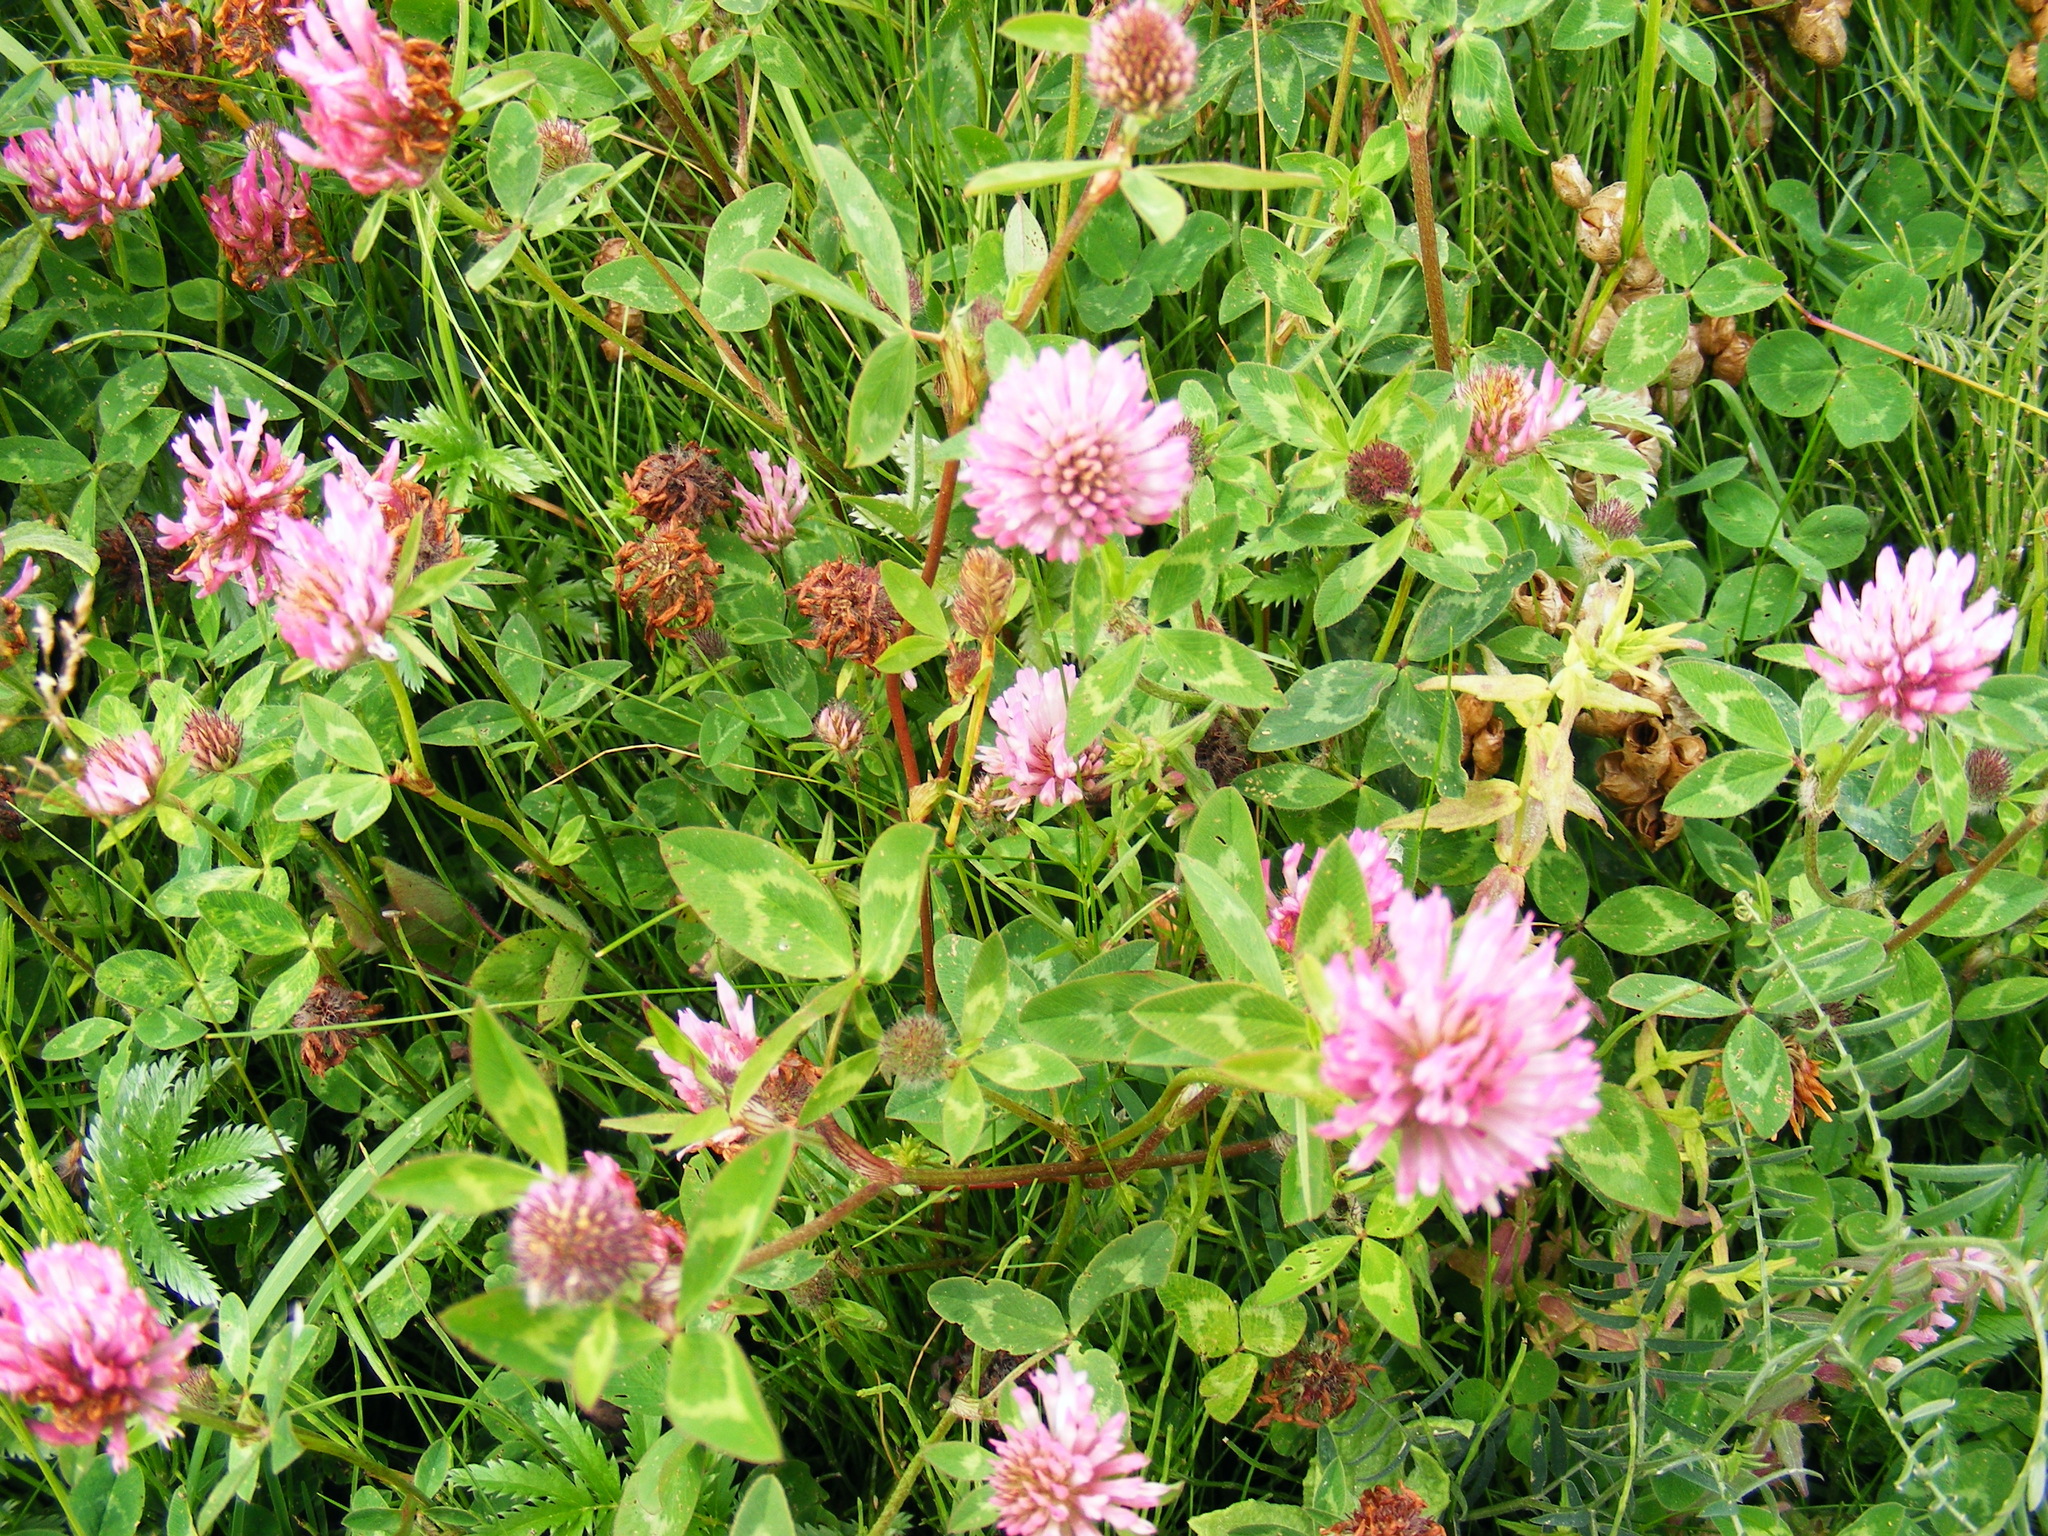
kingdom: Plantae
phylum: Tracheophyta
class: Magnoliopsida
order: Fabales
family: Fabaceae
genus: Trifolium
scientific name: Trifolium pratense
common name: Red clover
